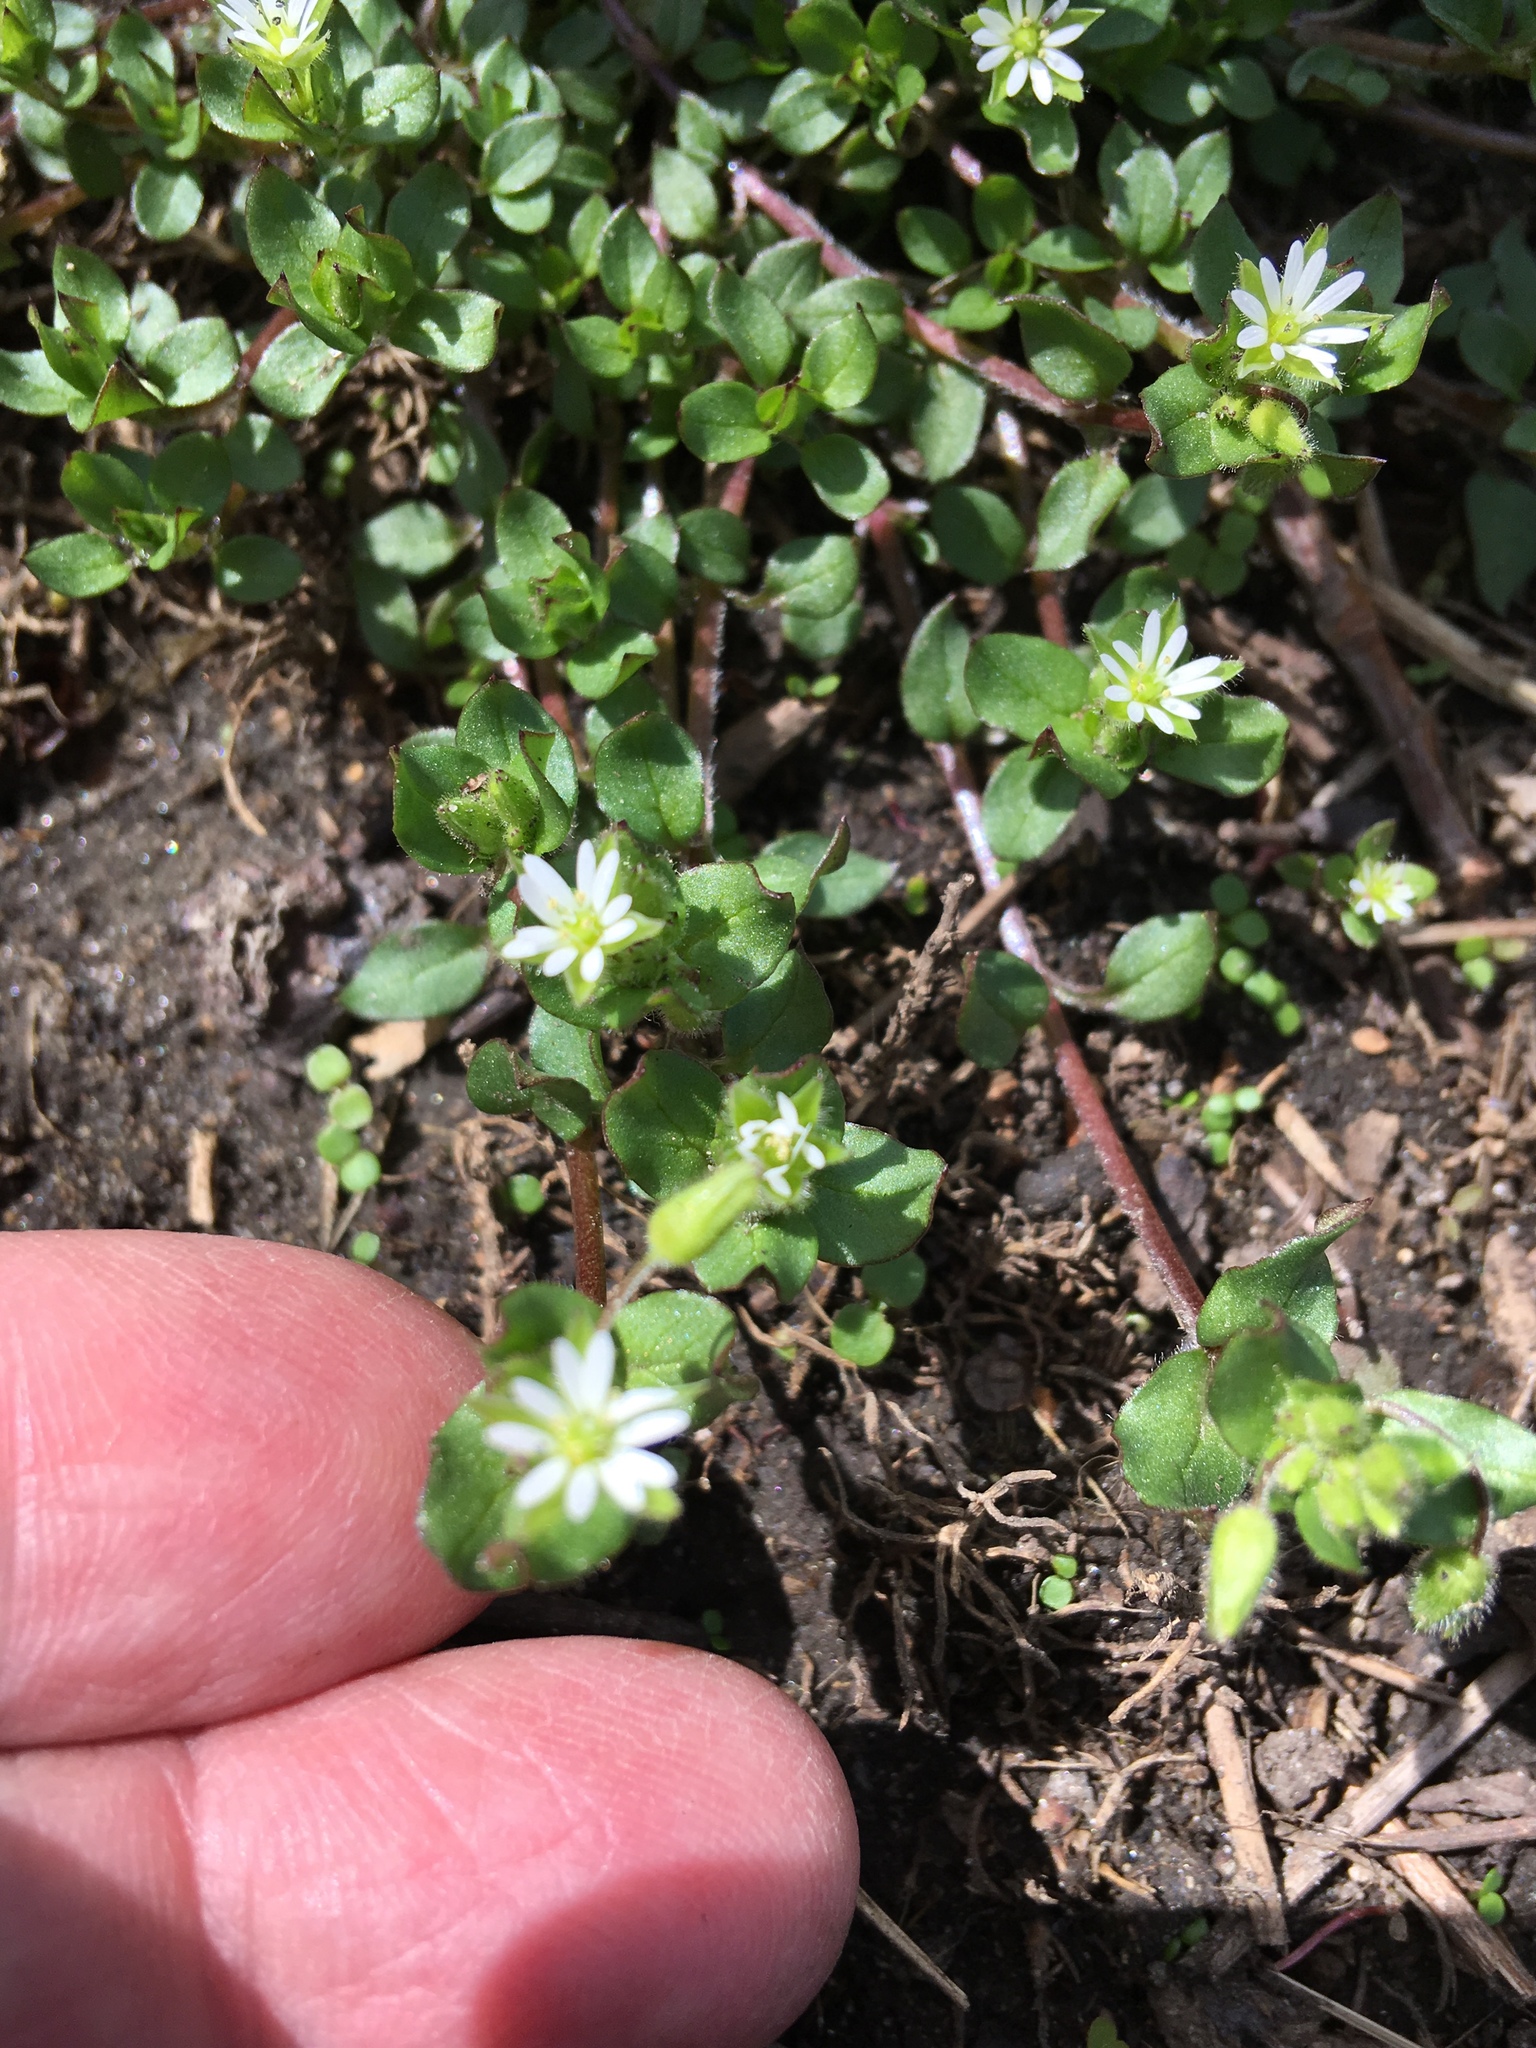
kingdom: Plantae
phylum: Tracheophyta
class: Magnoliopsida
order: Caryophyllales
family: Caryophyllaceae
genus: Stellaria
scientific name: Stellaria media
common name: Common chickweed
